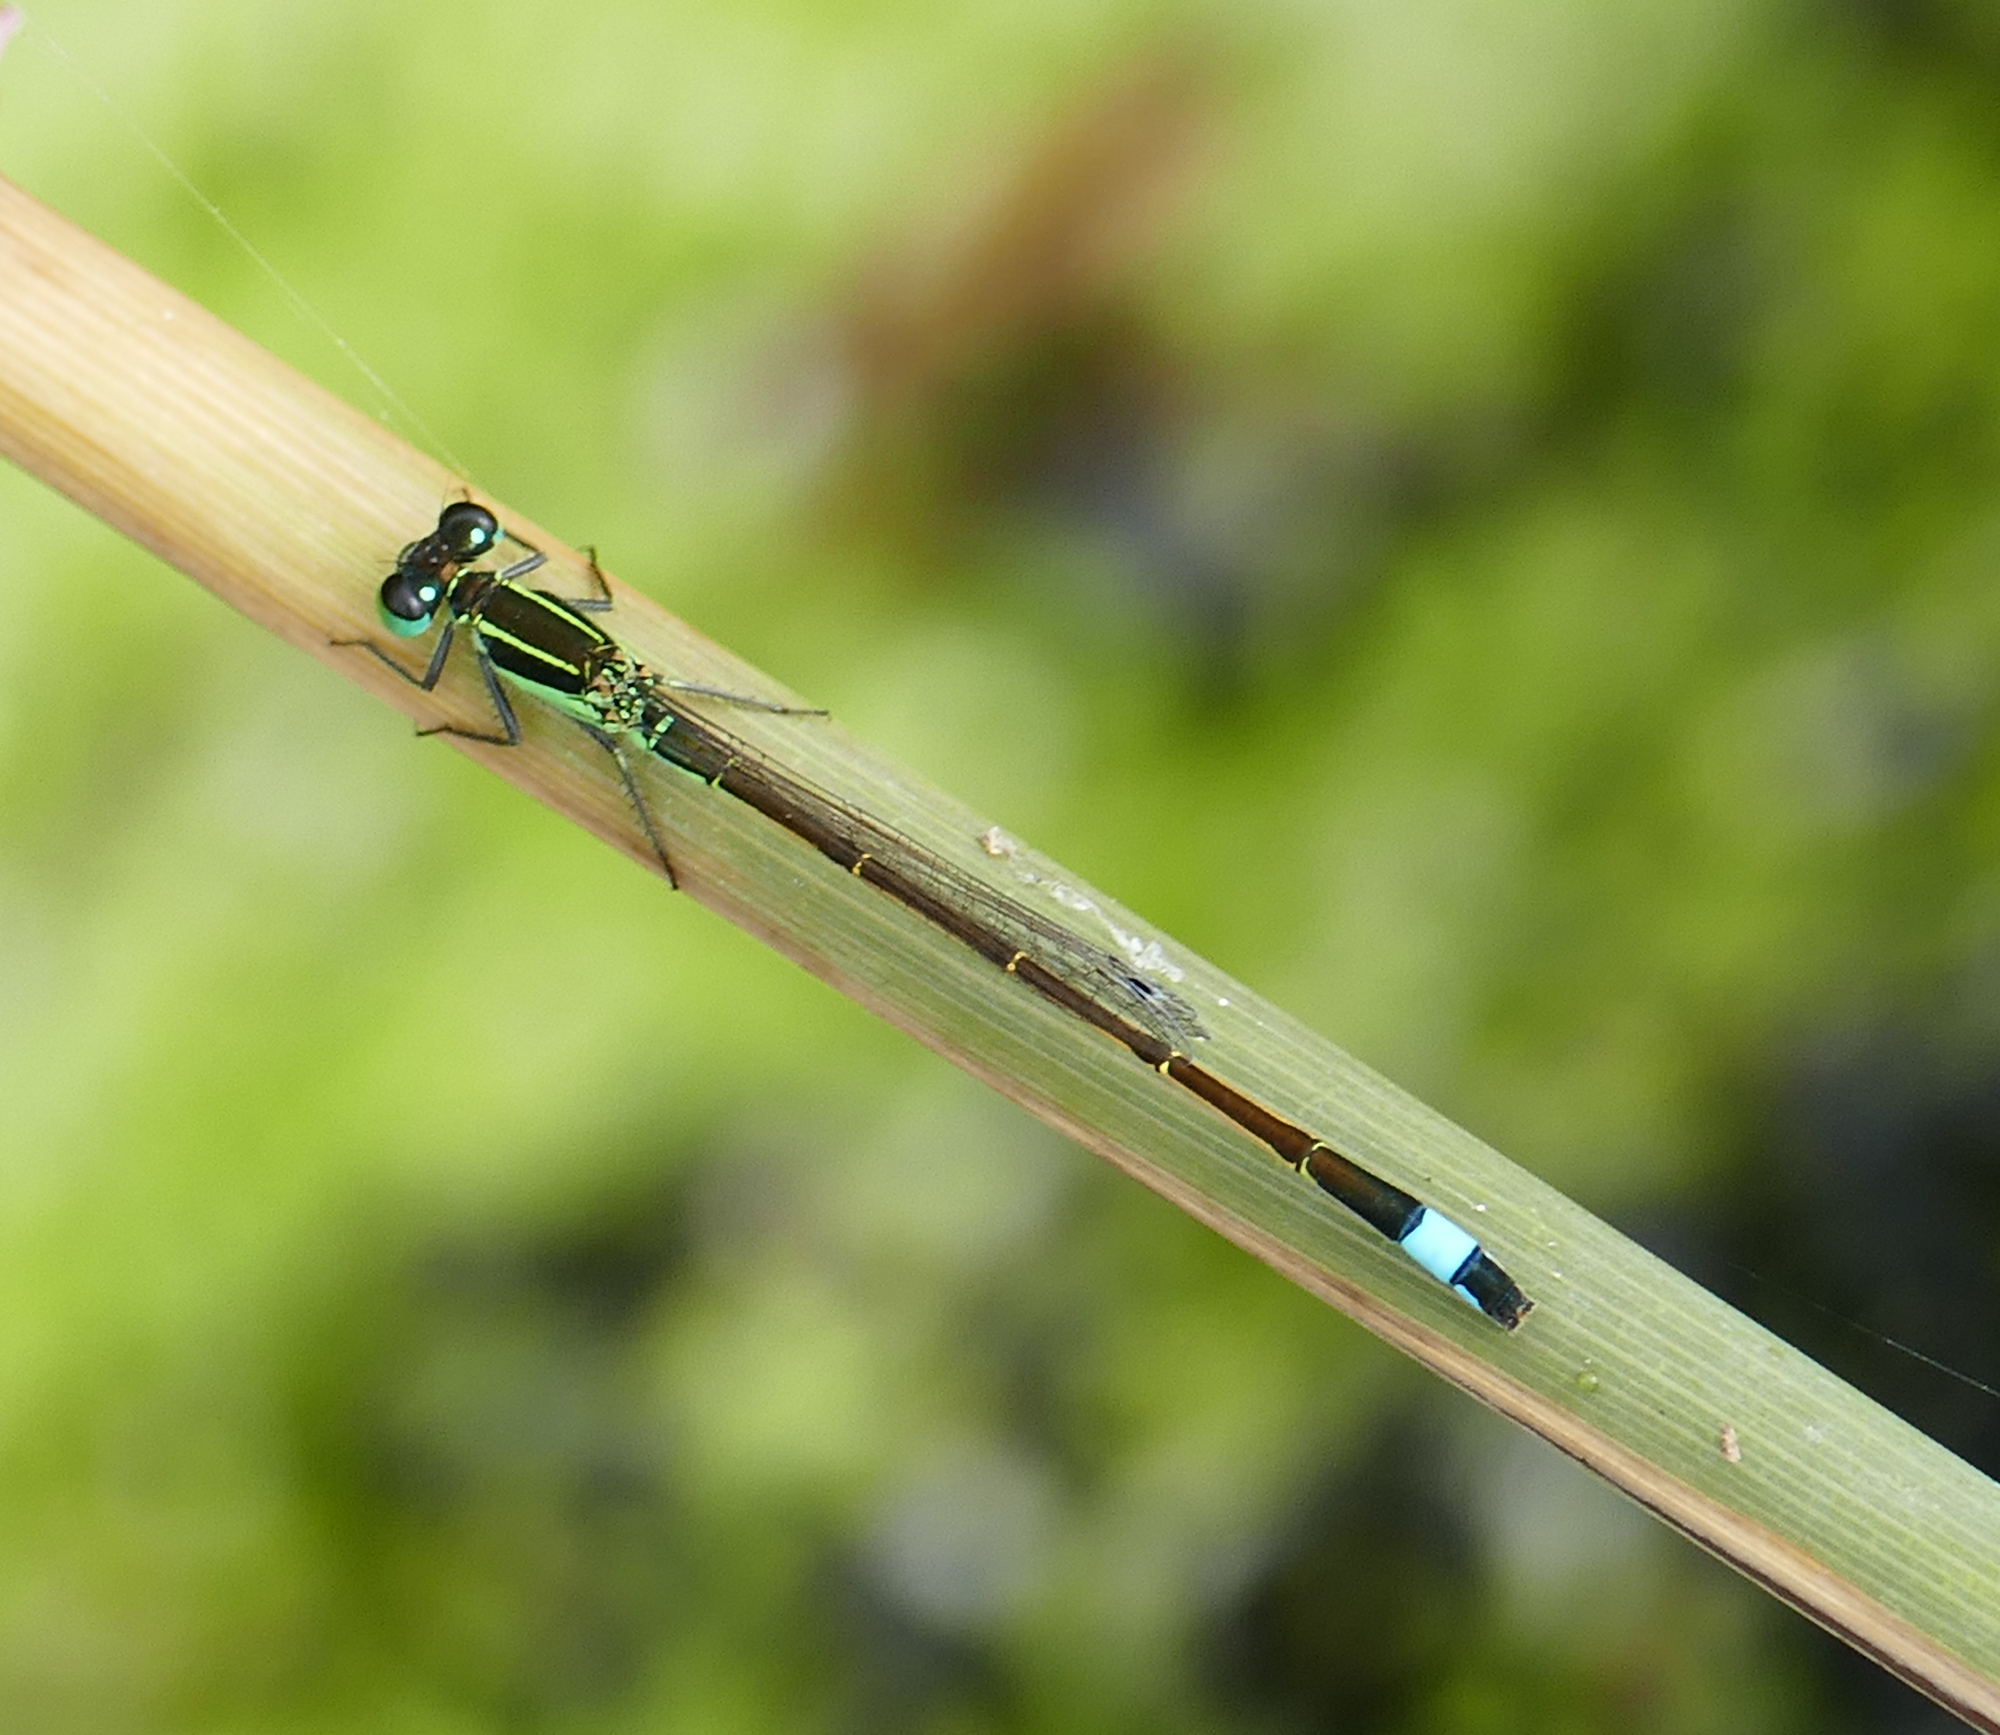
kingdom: Animalia
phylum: Arthropoda
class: Insecta
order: Odonata
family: Coenagrionidae
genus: Ischnura
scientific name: Ischnura ramburii
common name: Rambur's forktail
